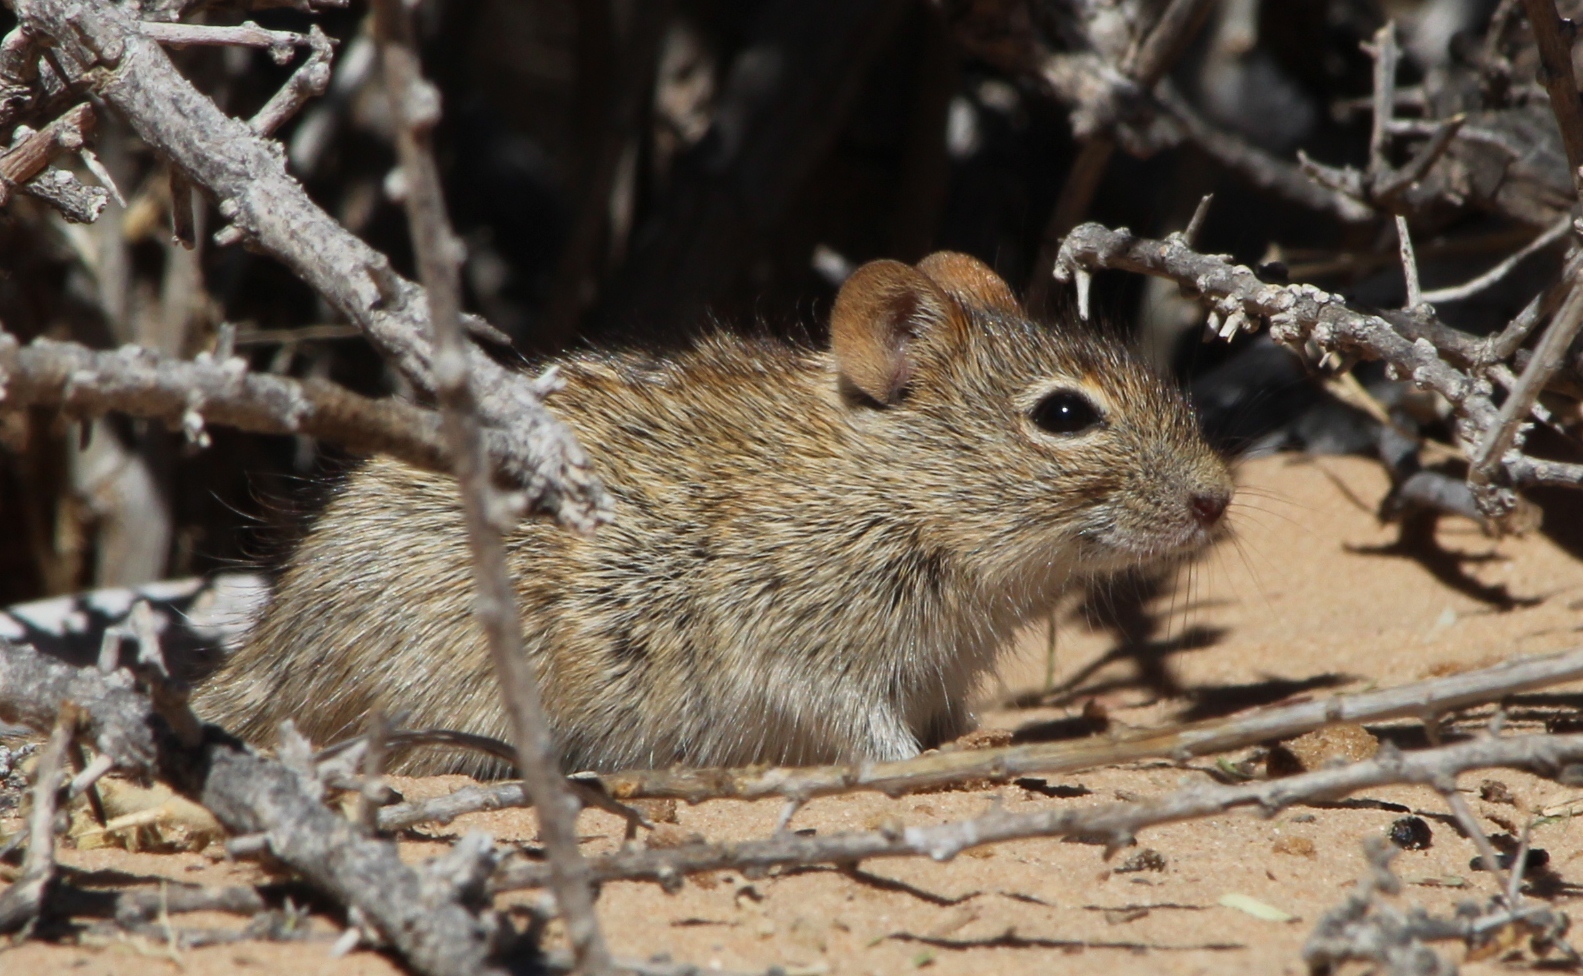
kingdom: Animalia
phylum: Chordata
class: Mammalia
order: Rodentia
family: Muridae
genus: Rhabdomys
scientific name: Rhabdomys pumilio
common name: Xeric four-striped grass rat
